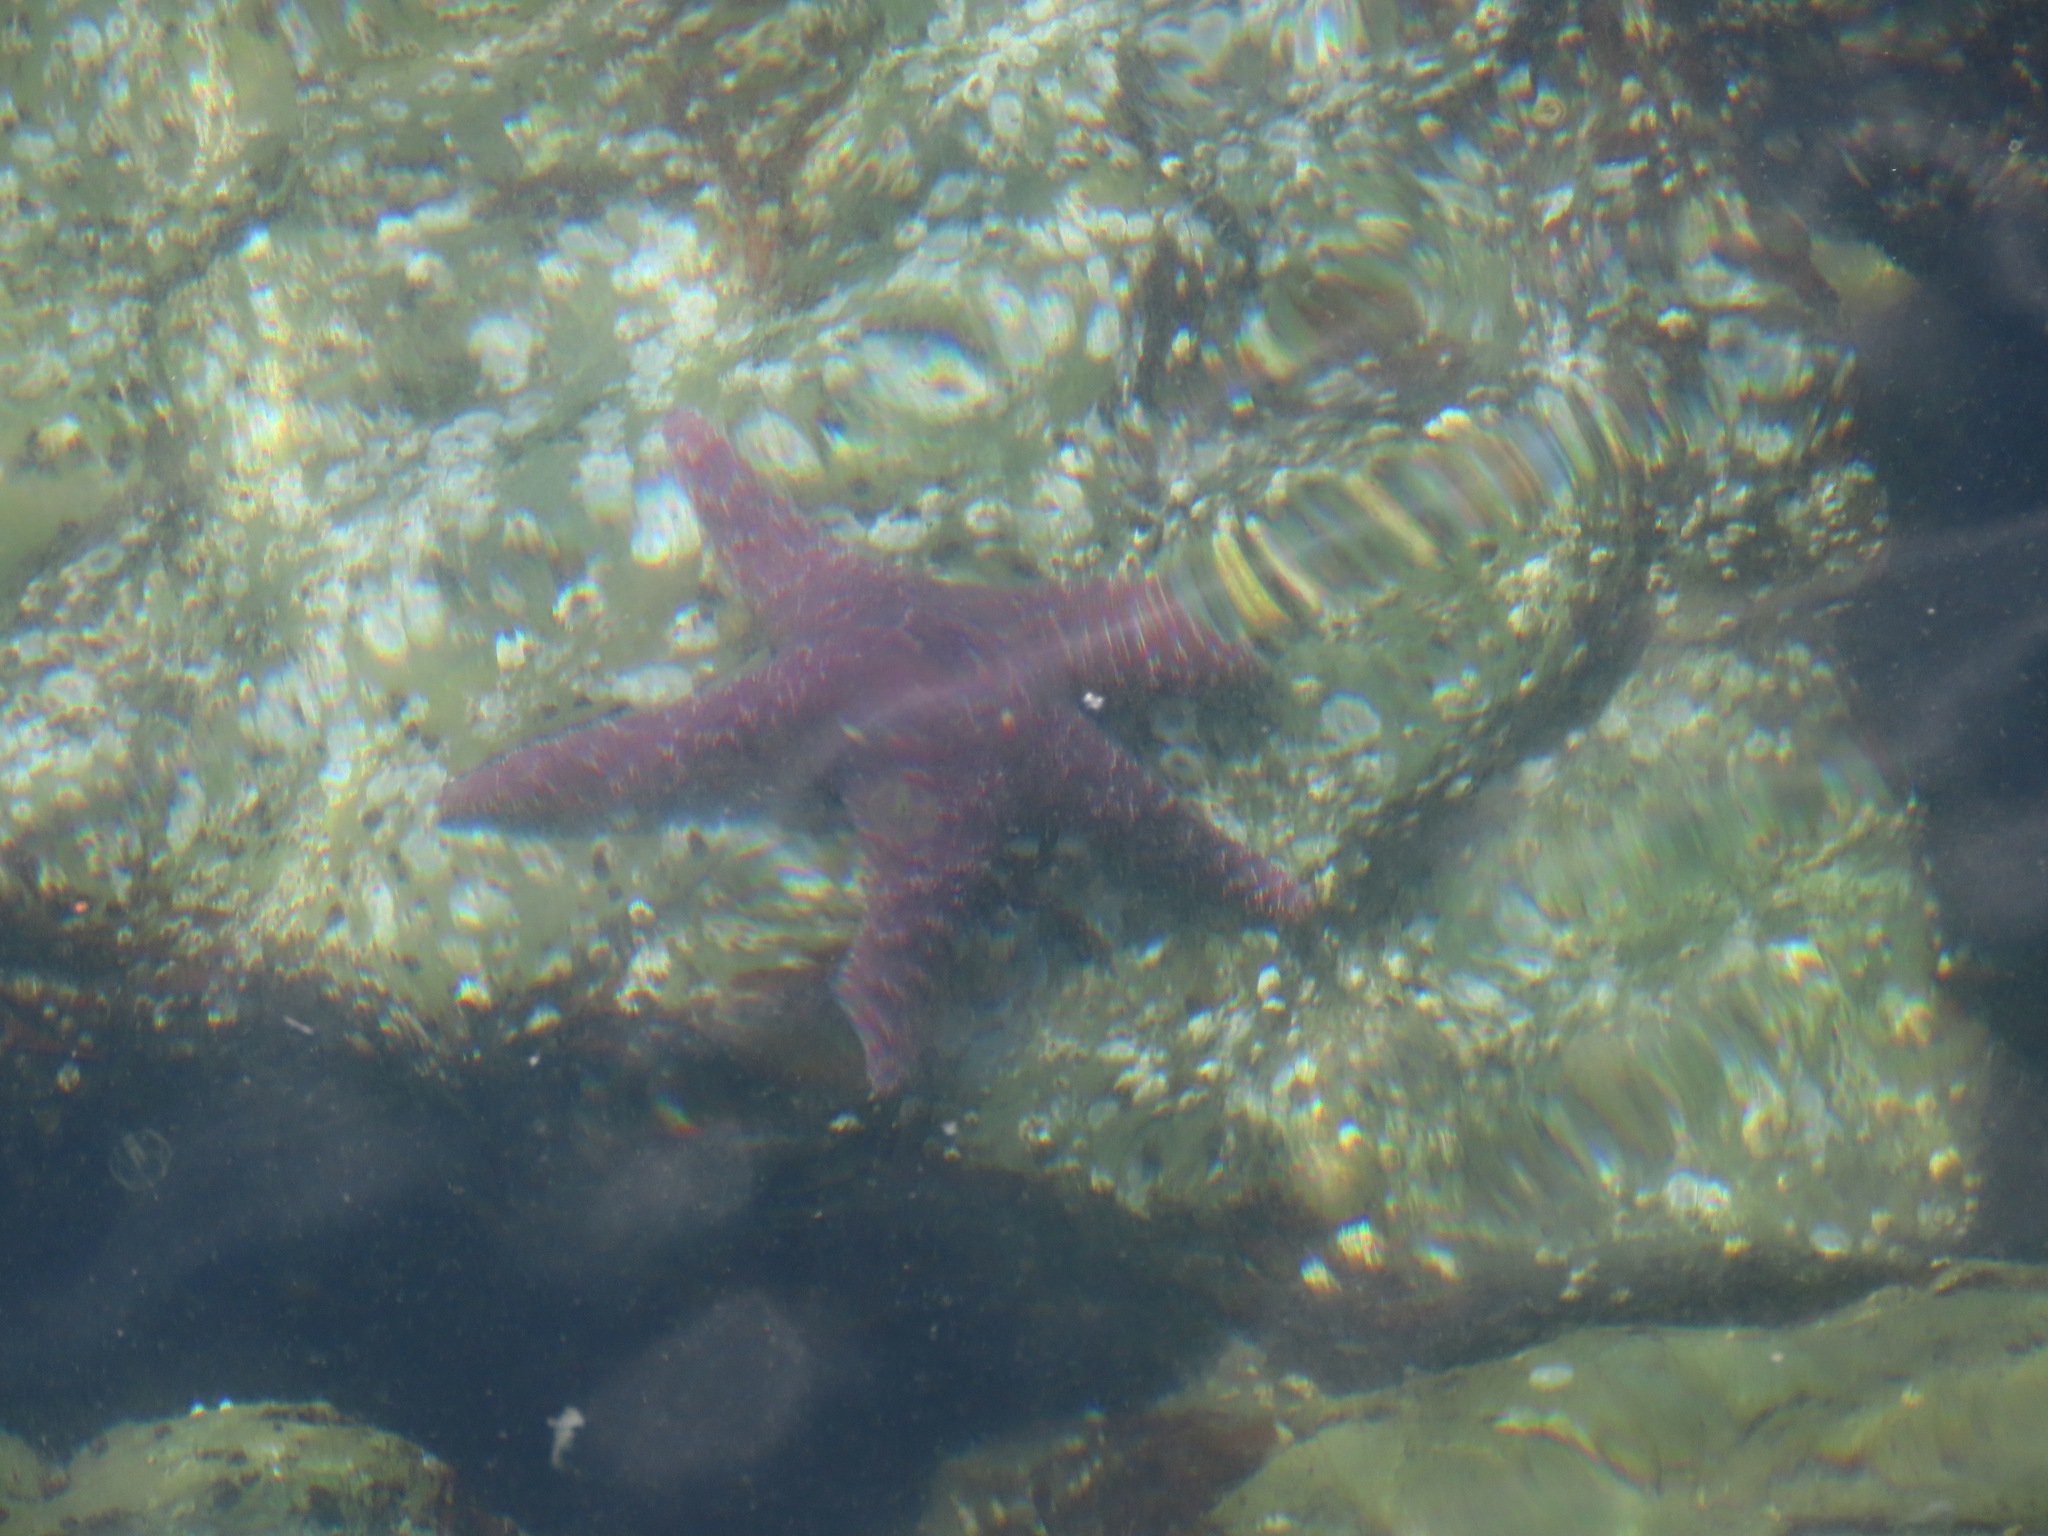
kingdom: Animalia
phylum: Echinodermata
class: Asteroidea
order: Forcipulatida
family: Asteriidae
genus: Pisaster
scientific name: Pisaster ochraceus
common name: Ochre stars
